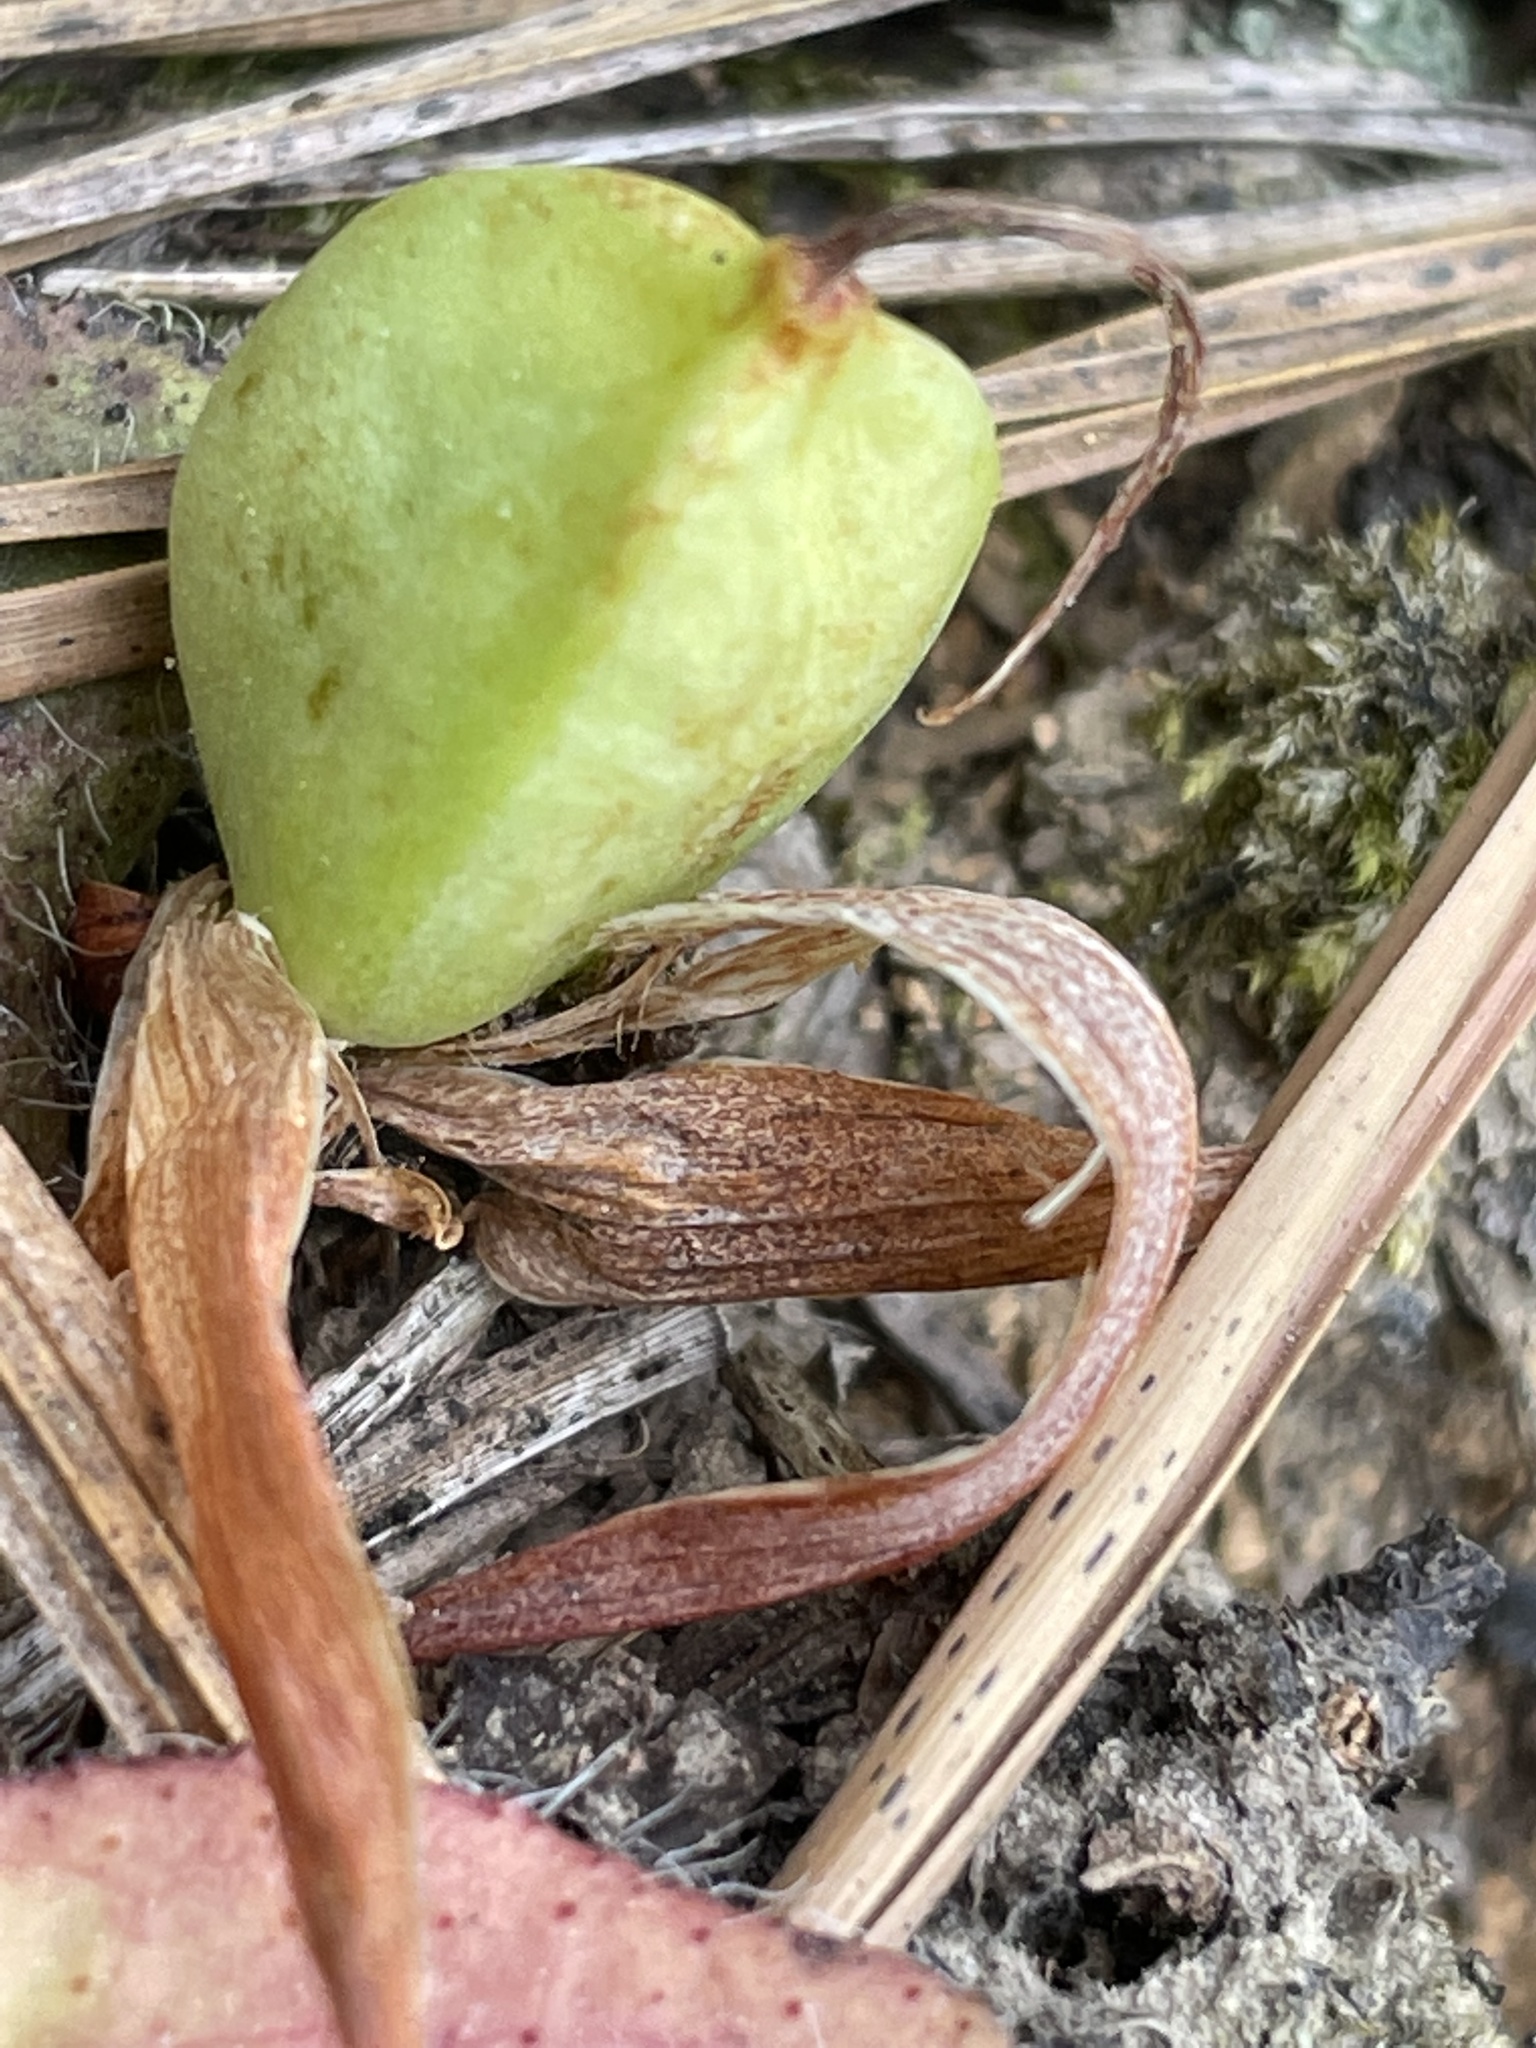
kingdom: Plantae
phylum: Tracheophyta
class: Liliopsida
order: Asparagales
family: Iridaceae
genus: Iris
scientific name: Iris verna
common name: Dwarf iris
